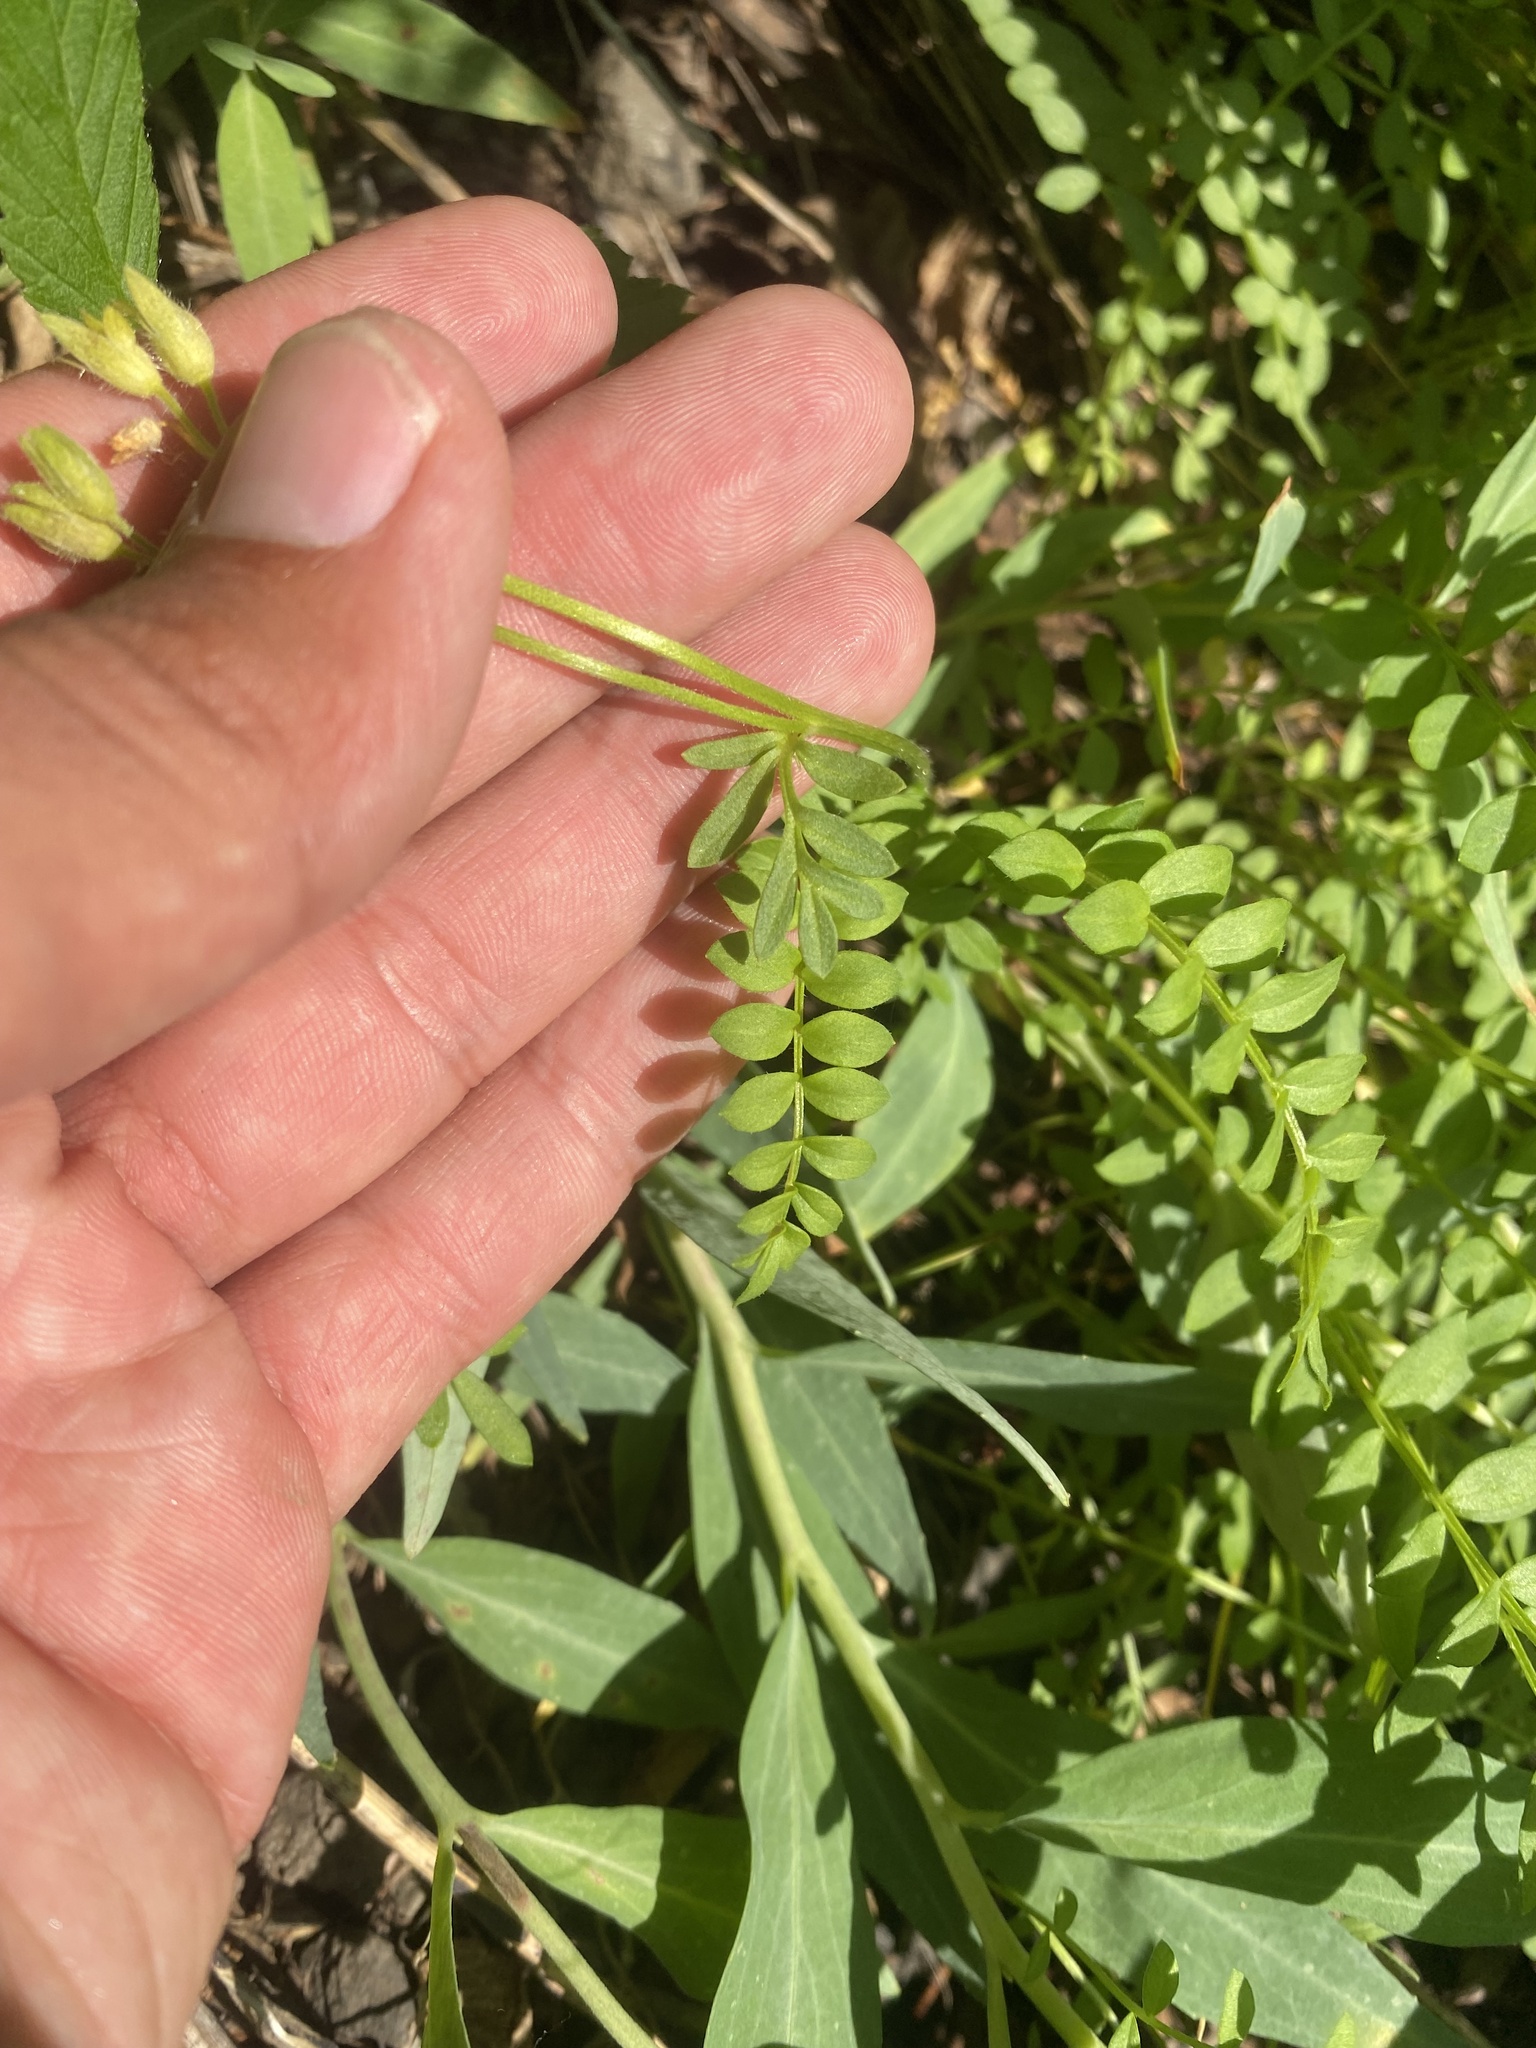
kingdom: Plantae
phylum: Tracheophyta
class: Magnoliopsida
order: Ericales
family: Polemoniaceae
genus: Polemonium
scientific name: Polemonium boreale
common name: Boreal jacob's-ladder
